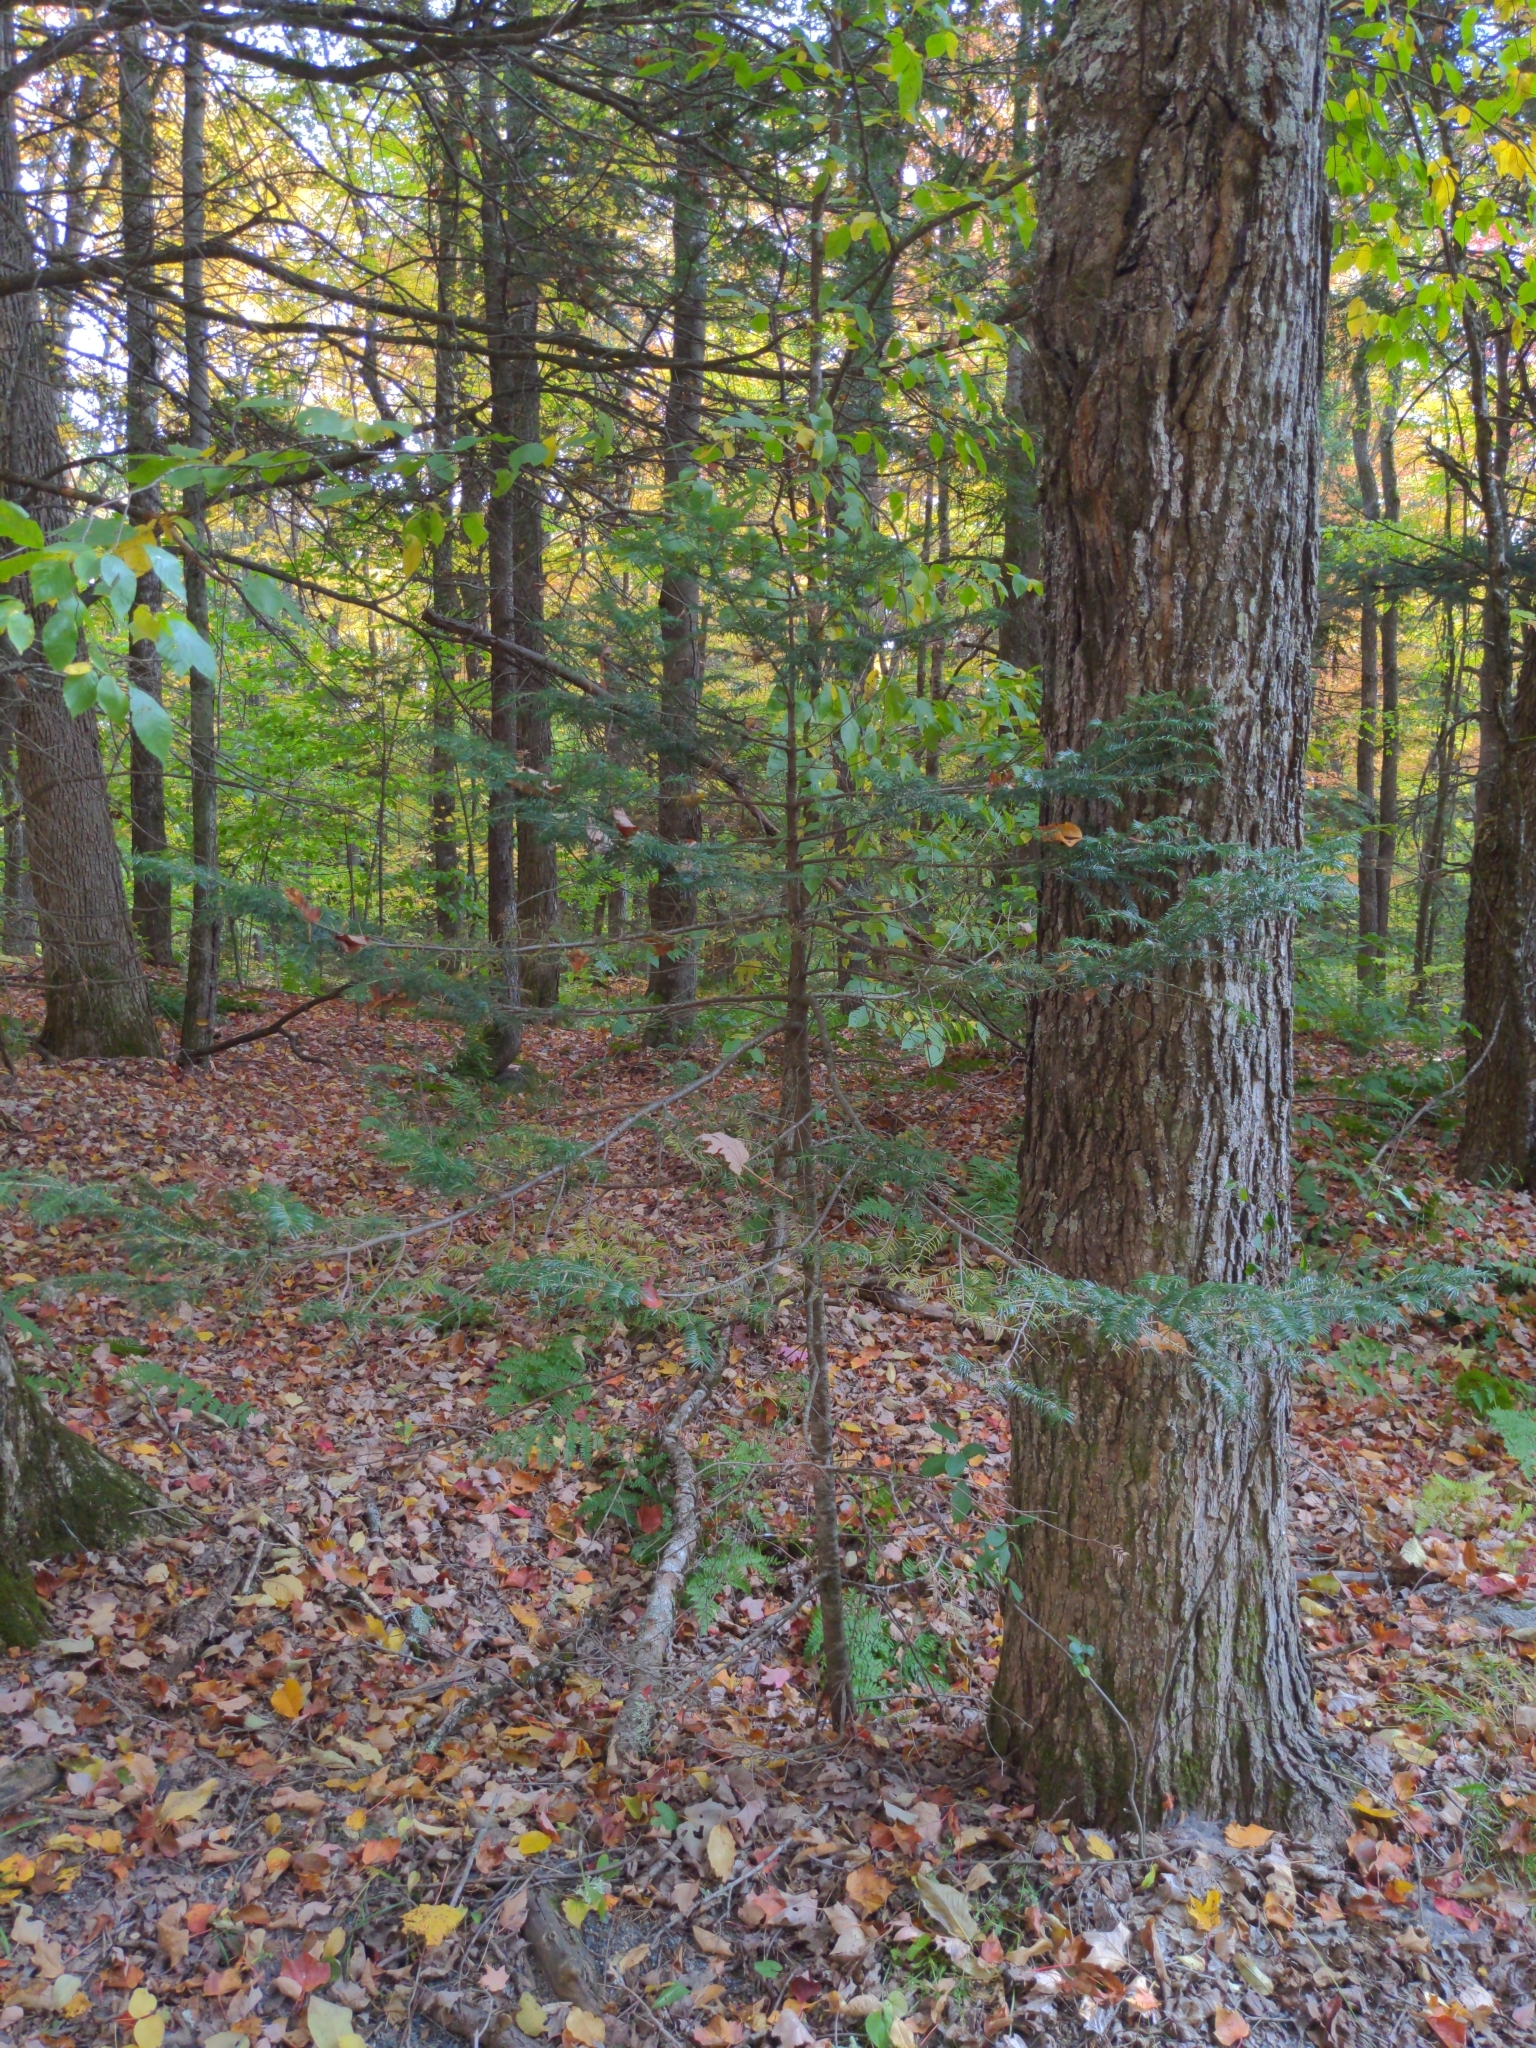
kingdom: Plantae
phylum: Tracheophyta
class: Pinopsida
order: Pinales
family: Pinaceae
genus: Abies
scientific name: Abies balsamea
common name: Balsam fir
